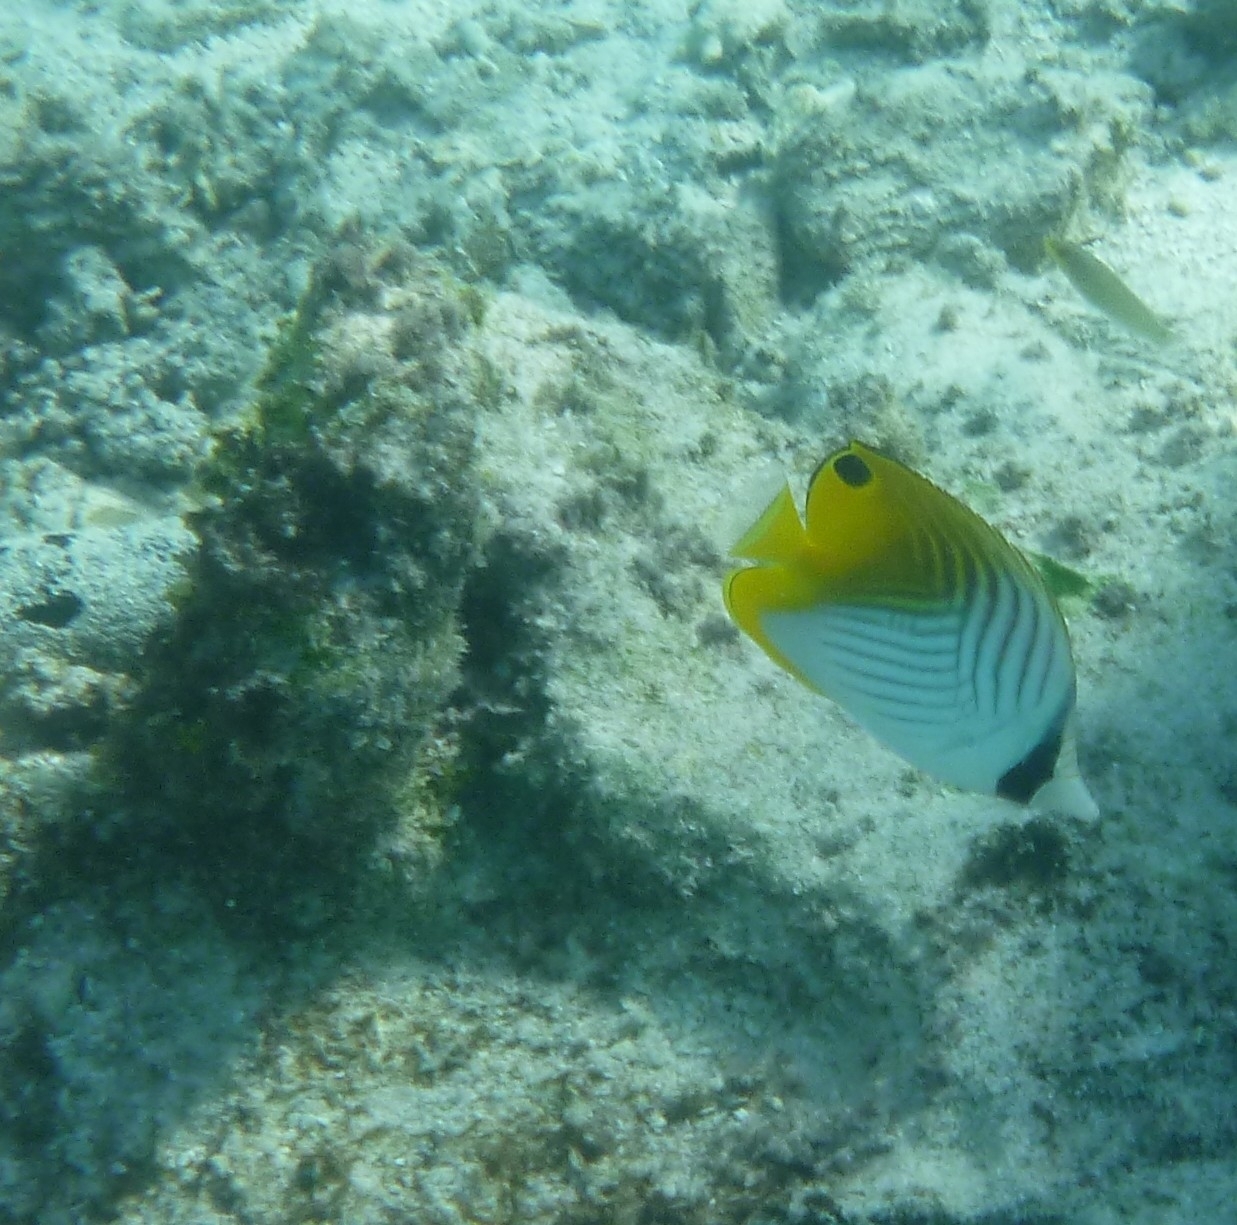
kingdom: Animalia
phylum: Chordata
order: Perciformes
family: Chaetodontidae
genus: Chaetodon
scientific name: Chaetodon auriga
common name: Threadfin butterflyfish
